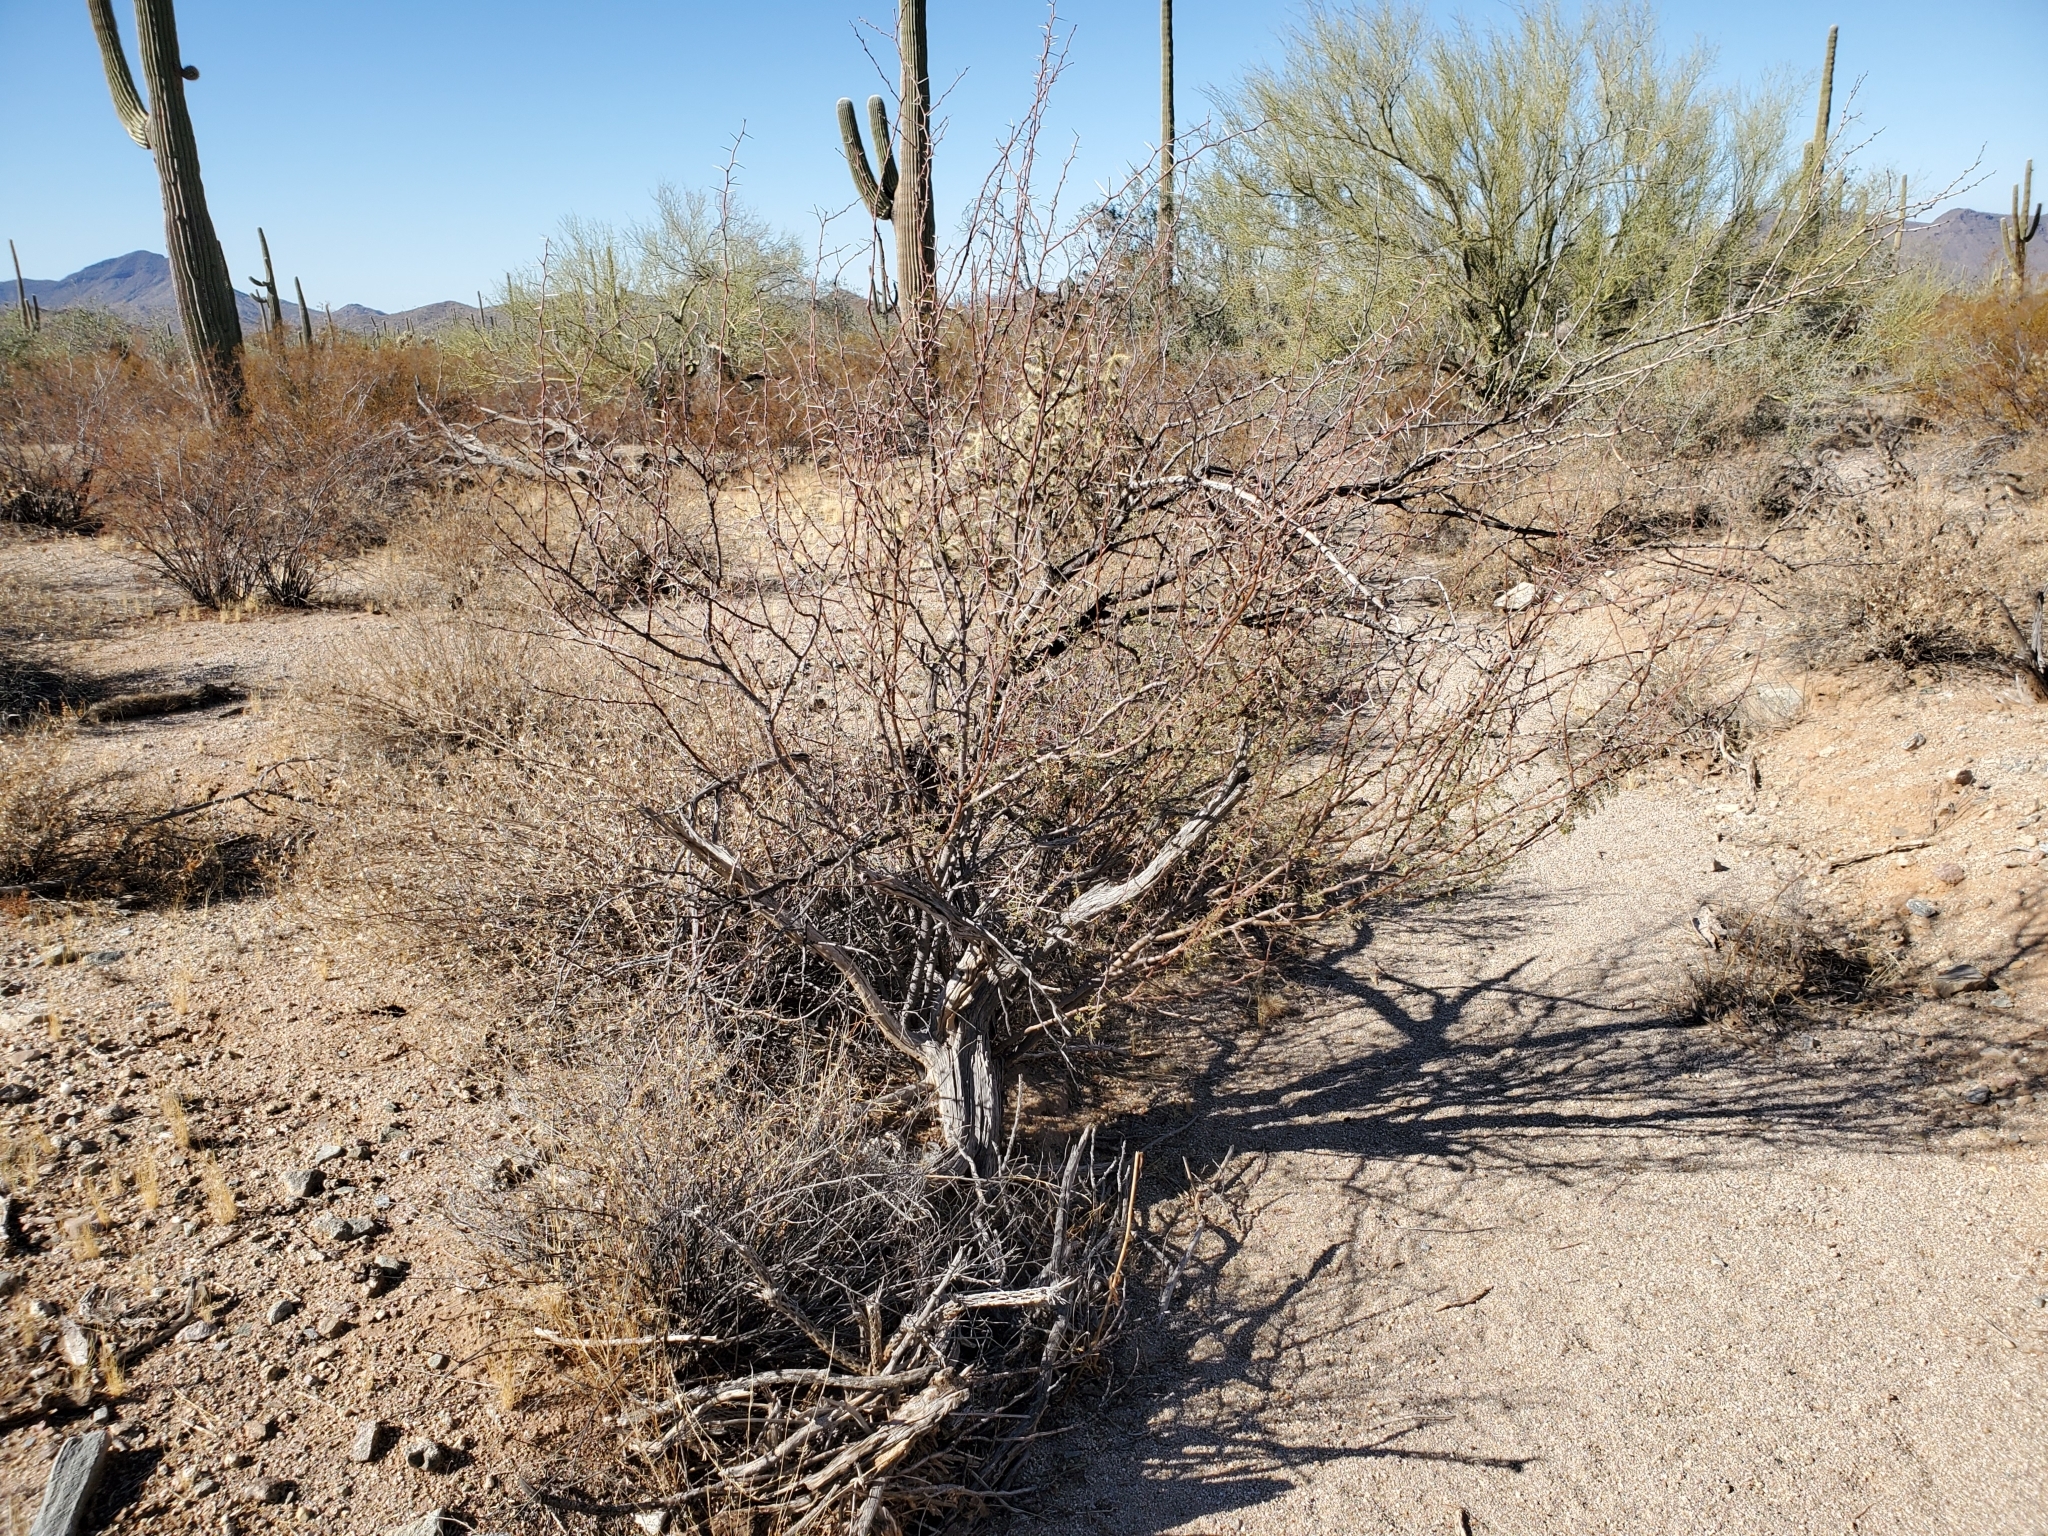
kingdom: Plantae
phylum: Tracheophyta
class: Magnoliopsida
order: Fabales
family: Fabaceae
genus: Vachellia
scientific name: Vachellia constricta
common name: Mescat acacia
